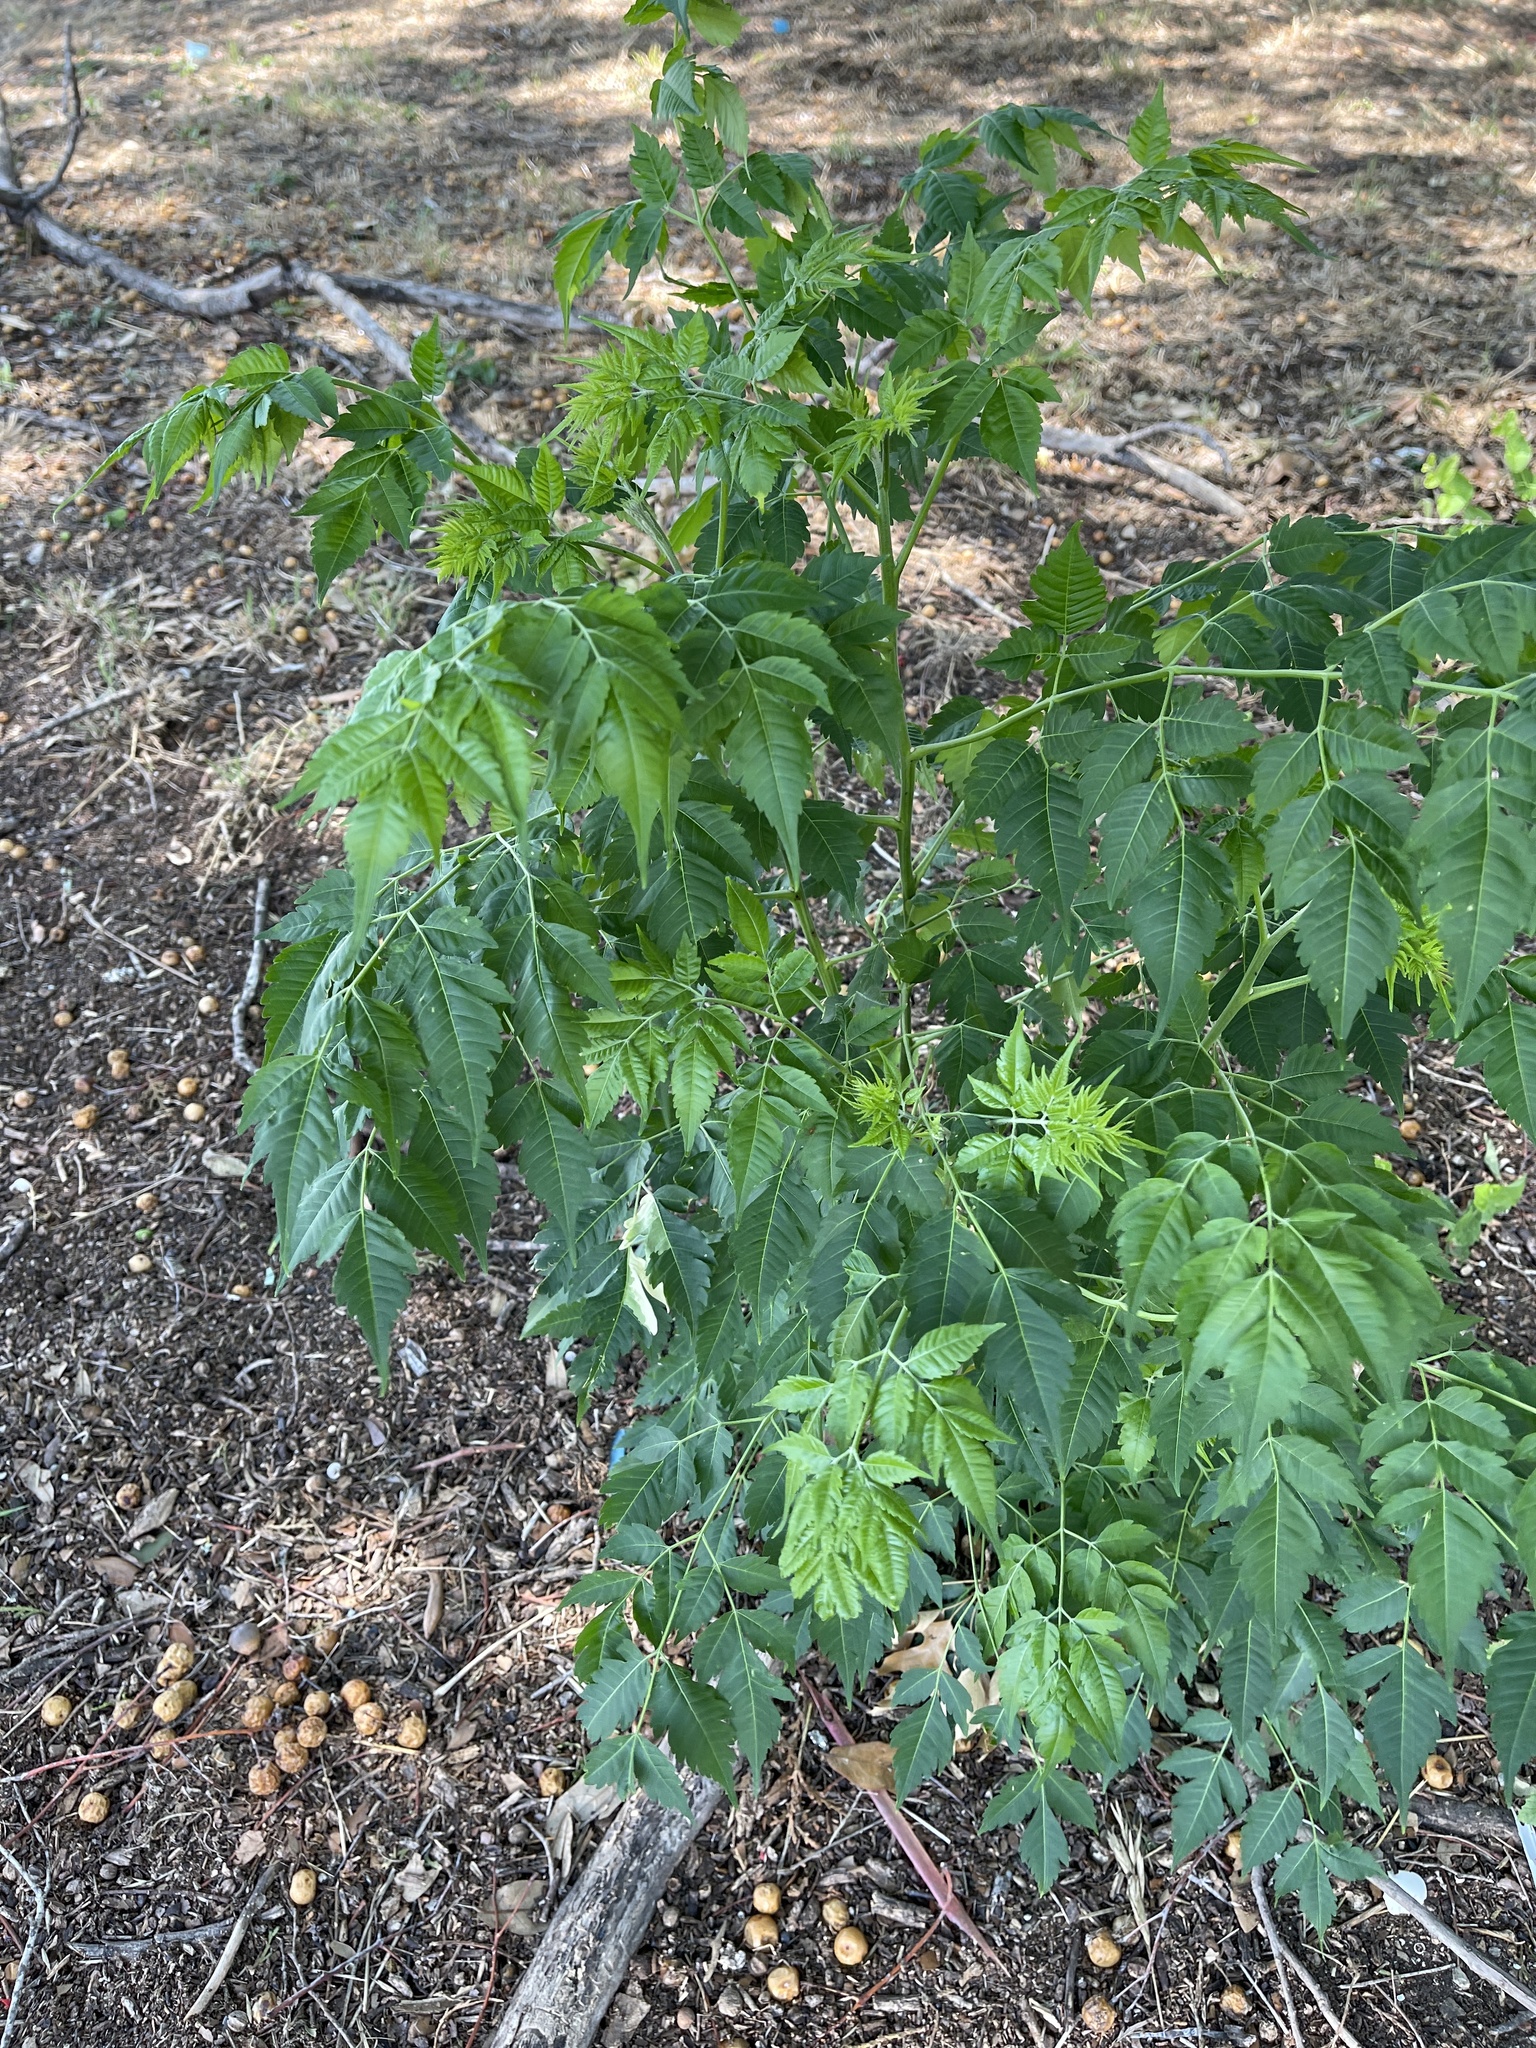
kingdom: Plantae
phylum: Tracheophyta
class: Magnoliopsida
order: Sapindales
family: Meliaceae
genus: Melia
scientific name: Melia azedarach
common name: Chinaberrytree
